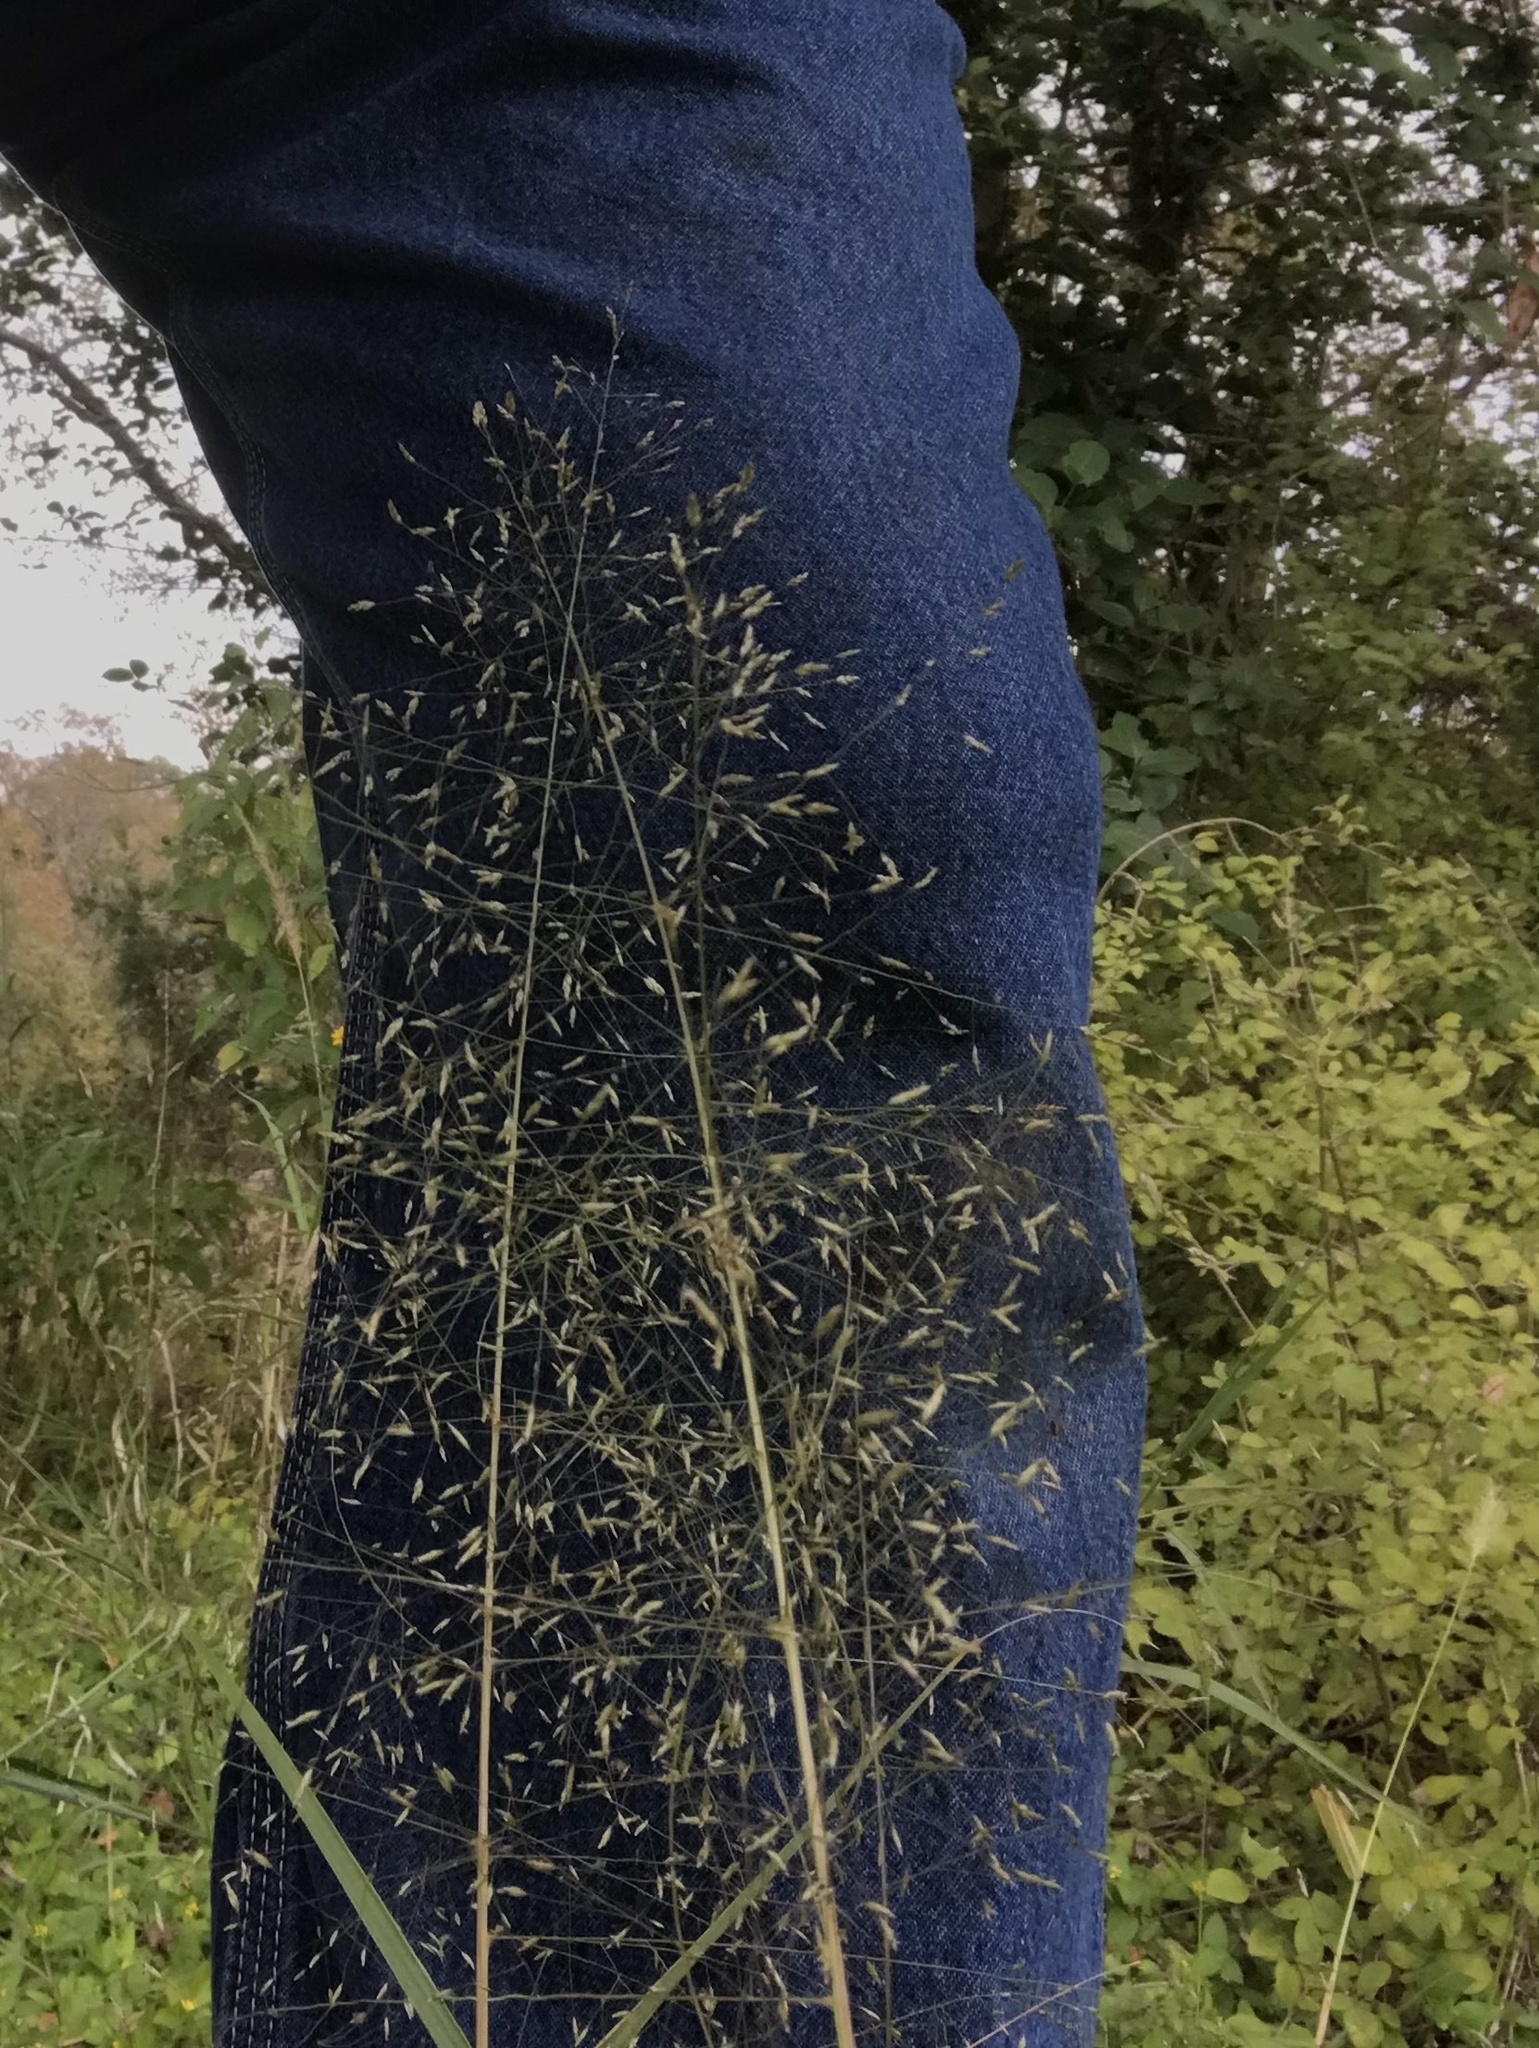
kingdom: Plantae
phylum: Tracheophyta
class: Liliopsida
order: Poales
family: Poaceae
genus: Eragrostis
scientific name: Eragrostis
